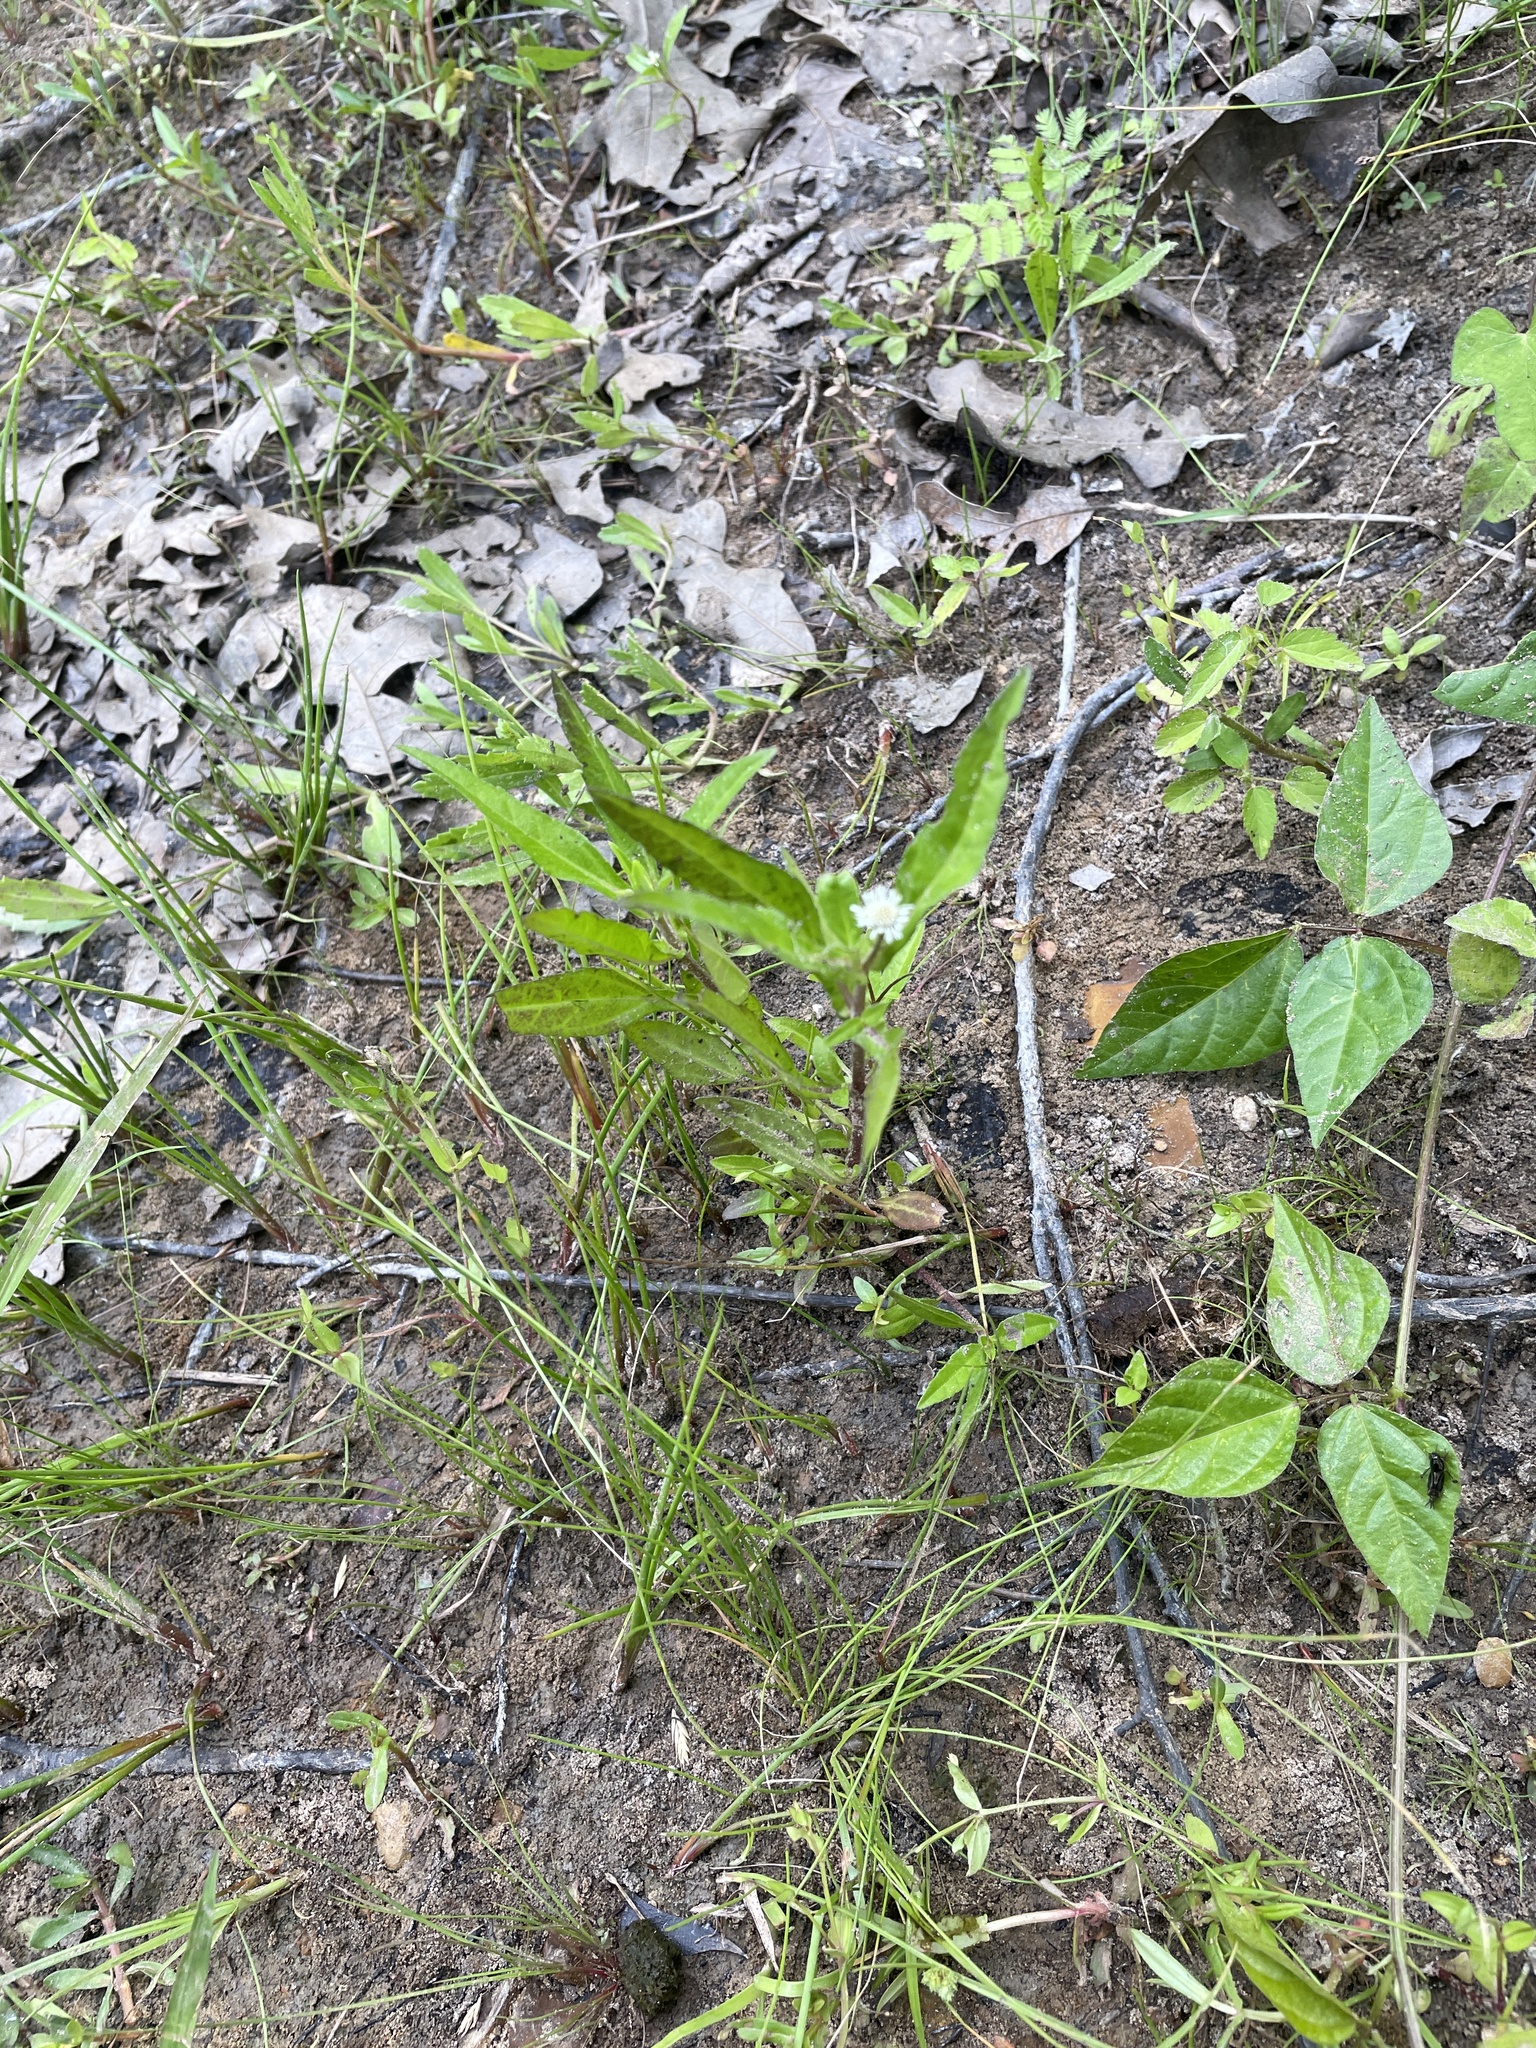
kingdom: Plantae
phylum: Tracheophyta
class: Magnoliopsida
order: Asterales
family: Asteraceae
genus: Eclipta
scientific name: Eclipta prostrata
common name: False daisy
